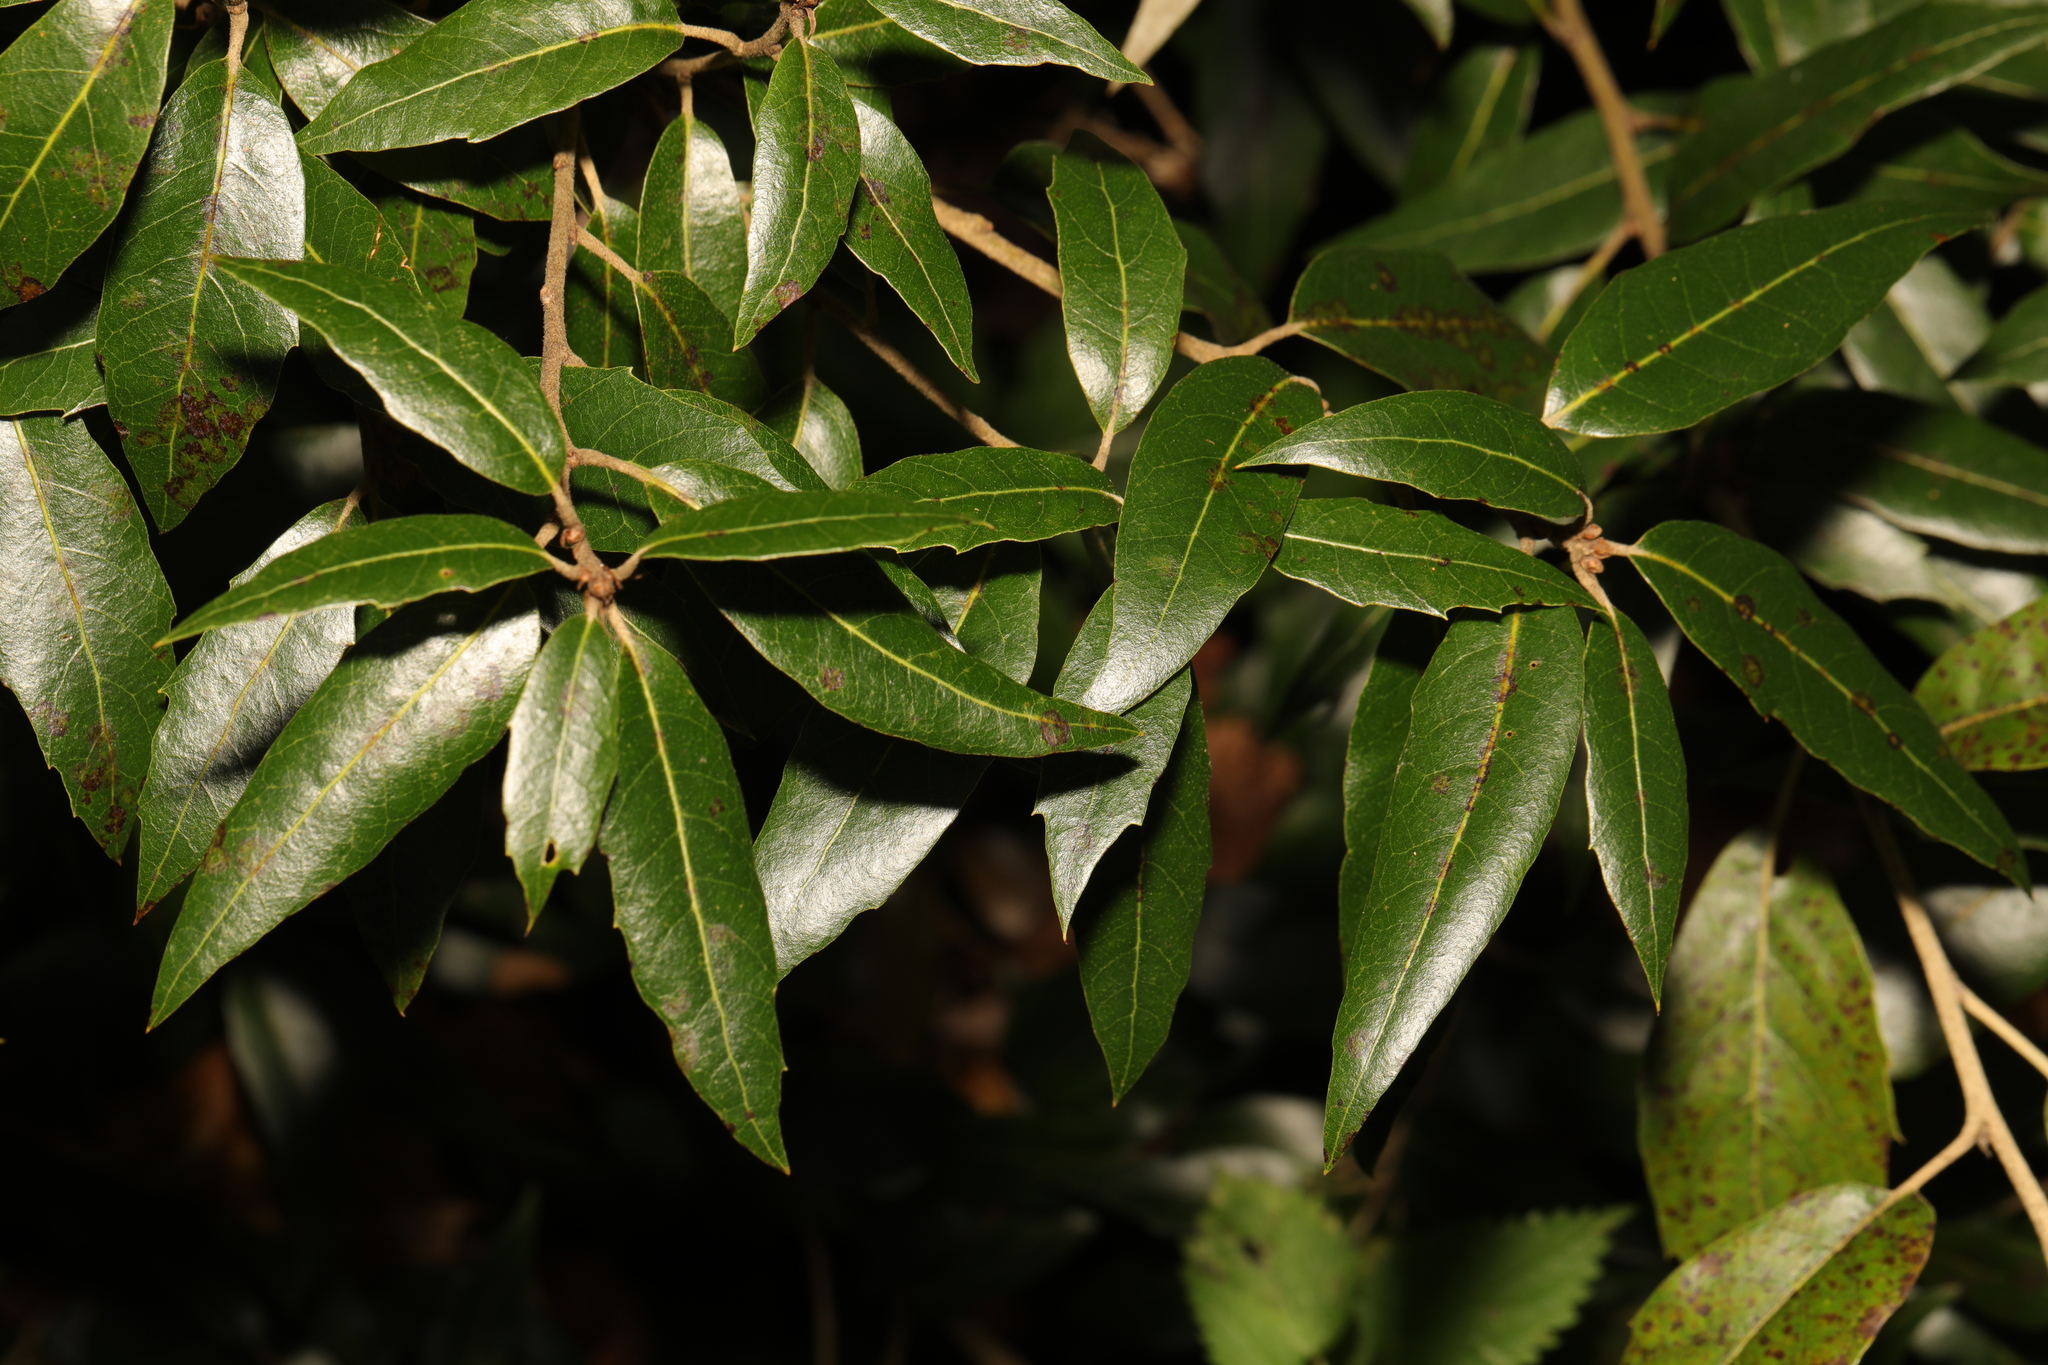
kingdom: Plantae
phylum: Tracheophyta
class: Magnoliopsida
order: Fagales
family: Fagaceae
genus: Quercus
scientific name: Quercus ilex
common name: Evergreen oak
